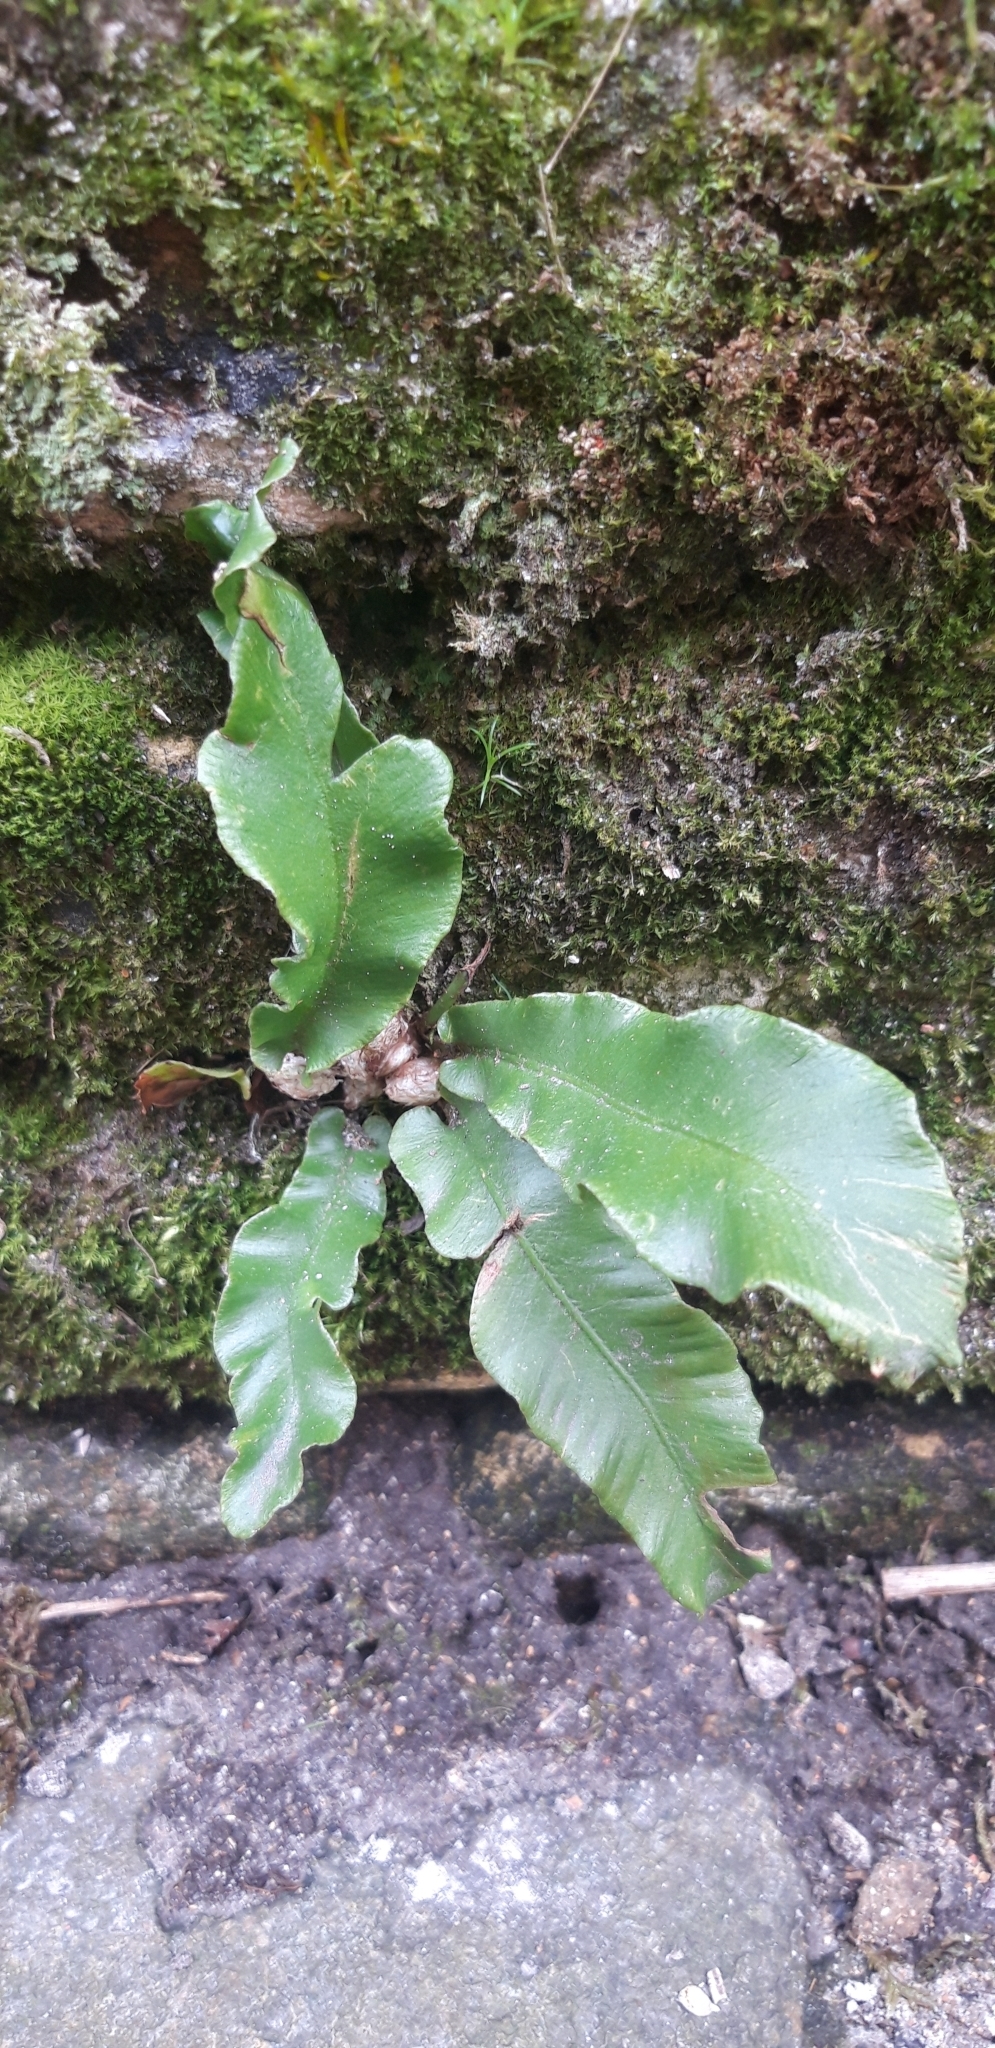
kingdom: Plantae
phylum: Tracheophyta
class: Polypodiopsida
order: Polypodiales
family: Aspleniaceae
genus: Asplenium
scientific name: Asplenium scolopendrium
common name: Hart's-tongue fern
